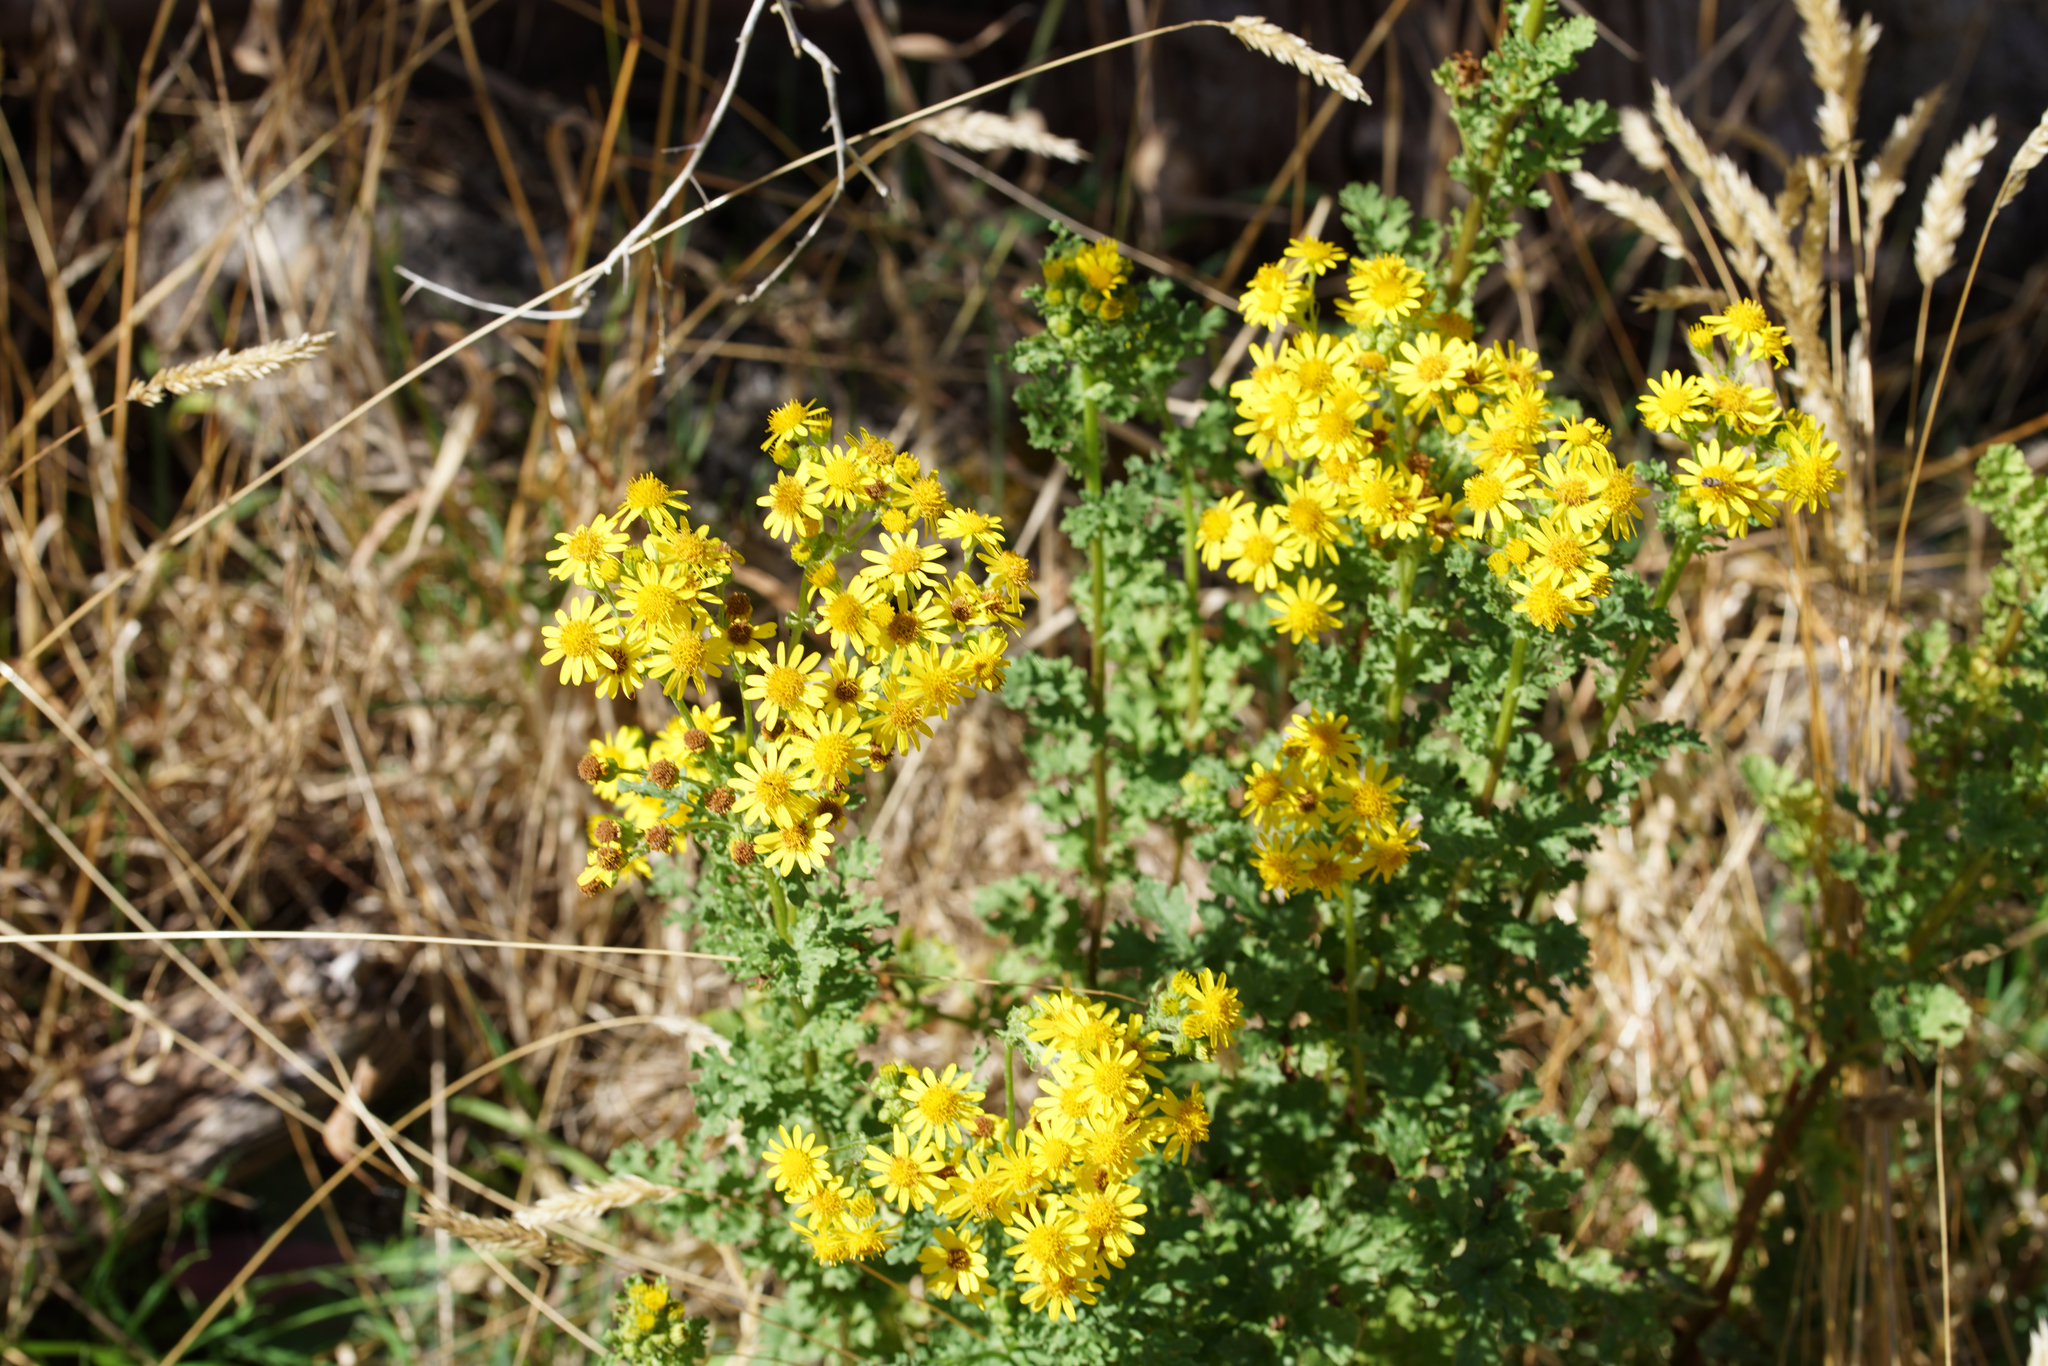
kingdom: Plantae
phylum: Tracheophyta
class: Magnoliopsida
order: Asterales
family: Asteraceae
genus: Jacobaea
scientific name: Jacobaea vulgaris
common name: Stinking willie
